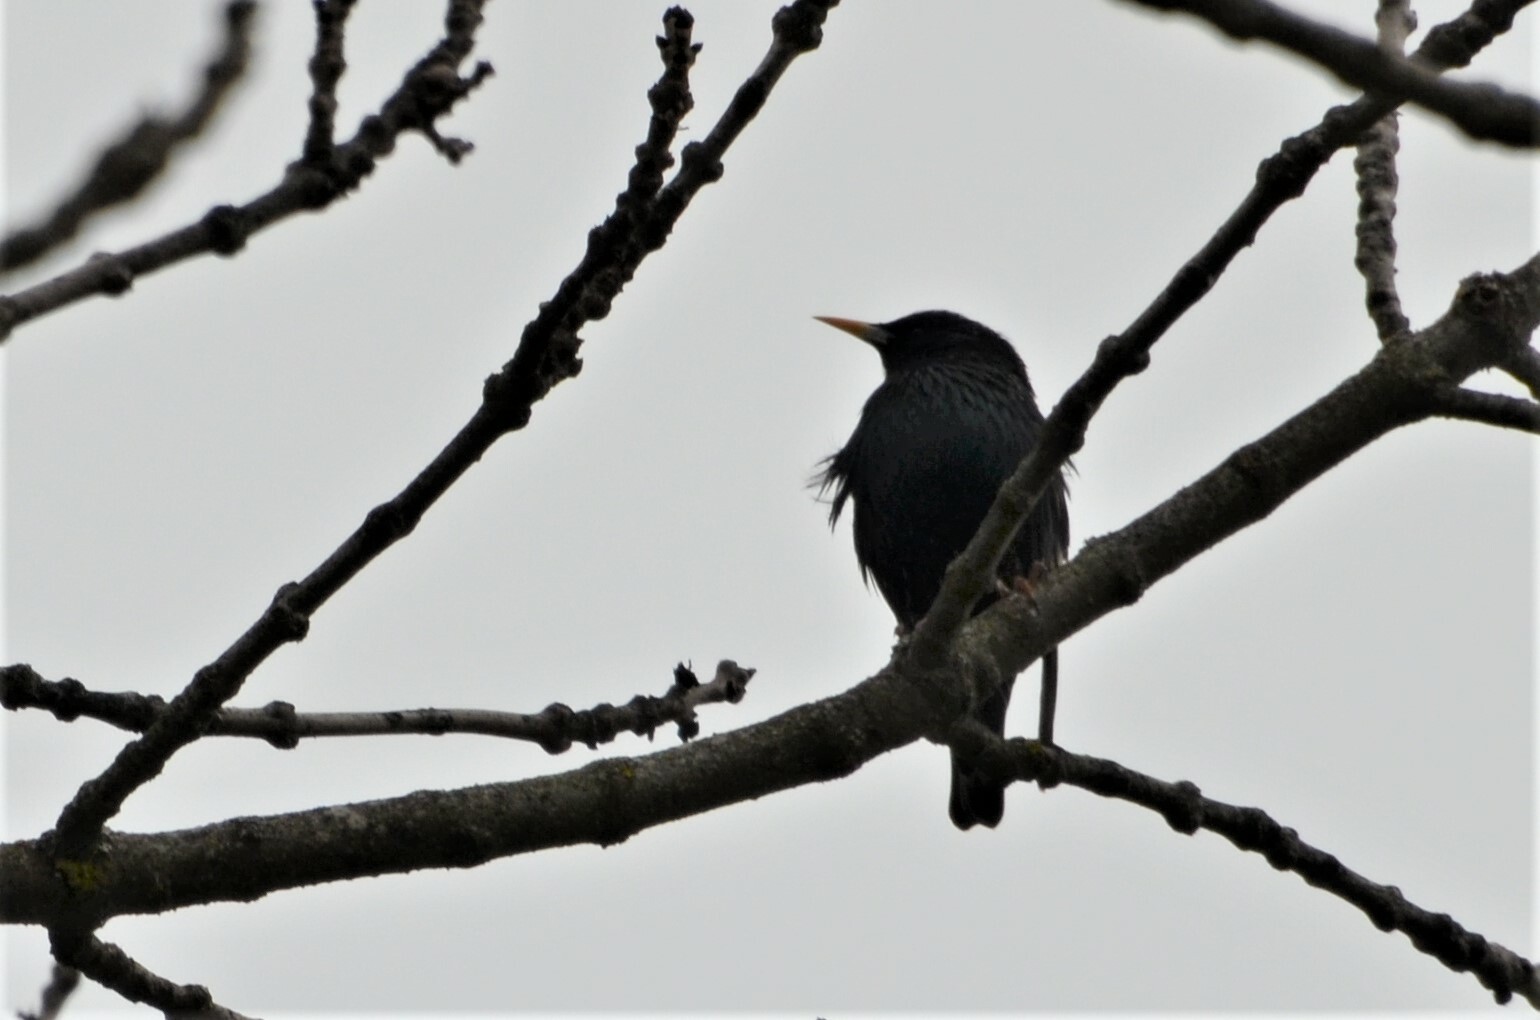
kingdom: Animalia
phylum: Chordata
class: Aves
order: Passeriformes
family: Sturnidae
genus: Sturnus
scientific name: Sturnus vulgaris
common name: Common starling
